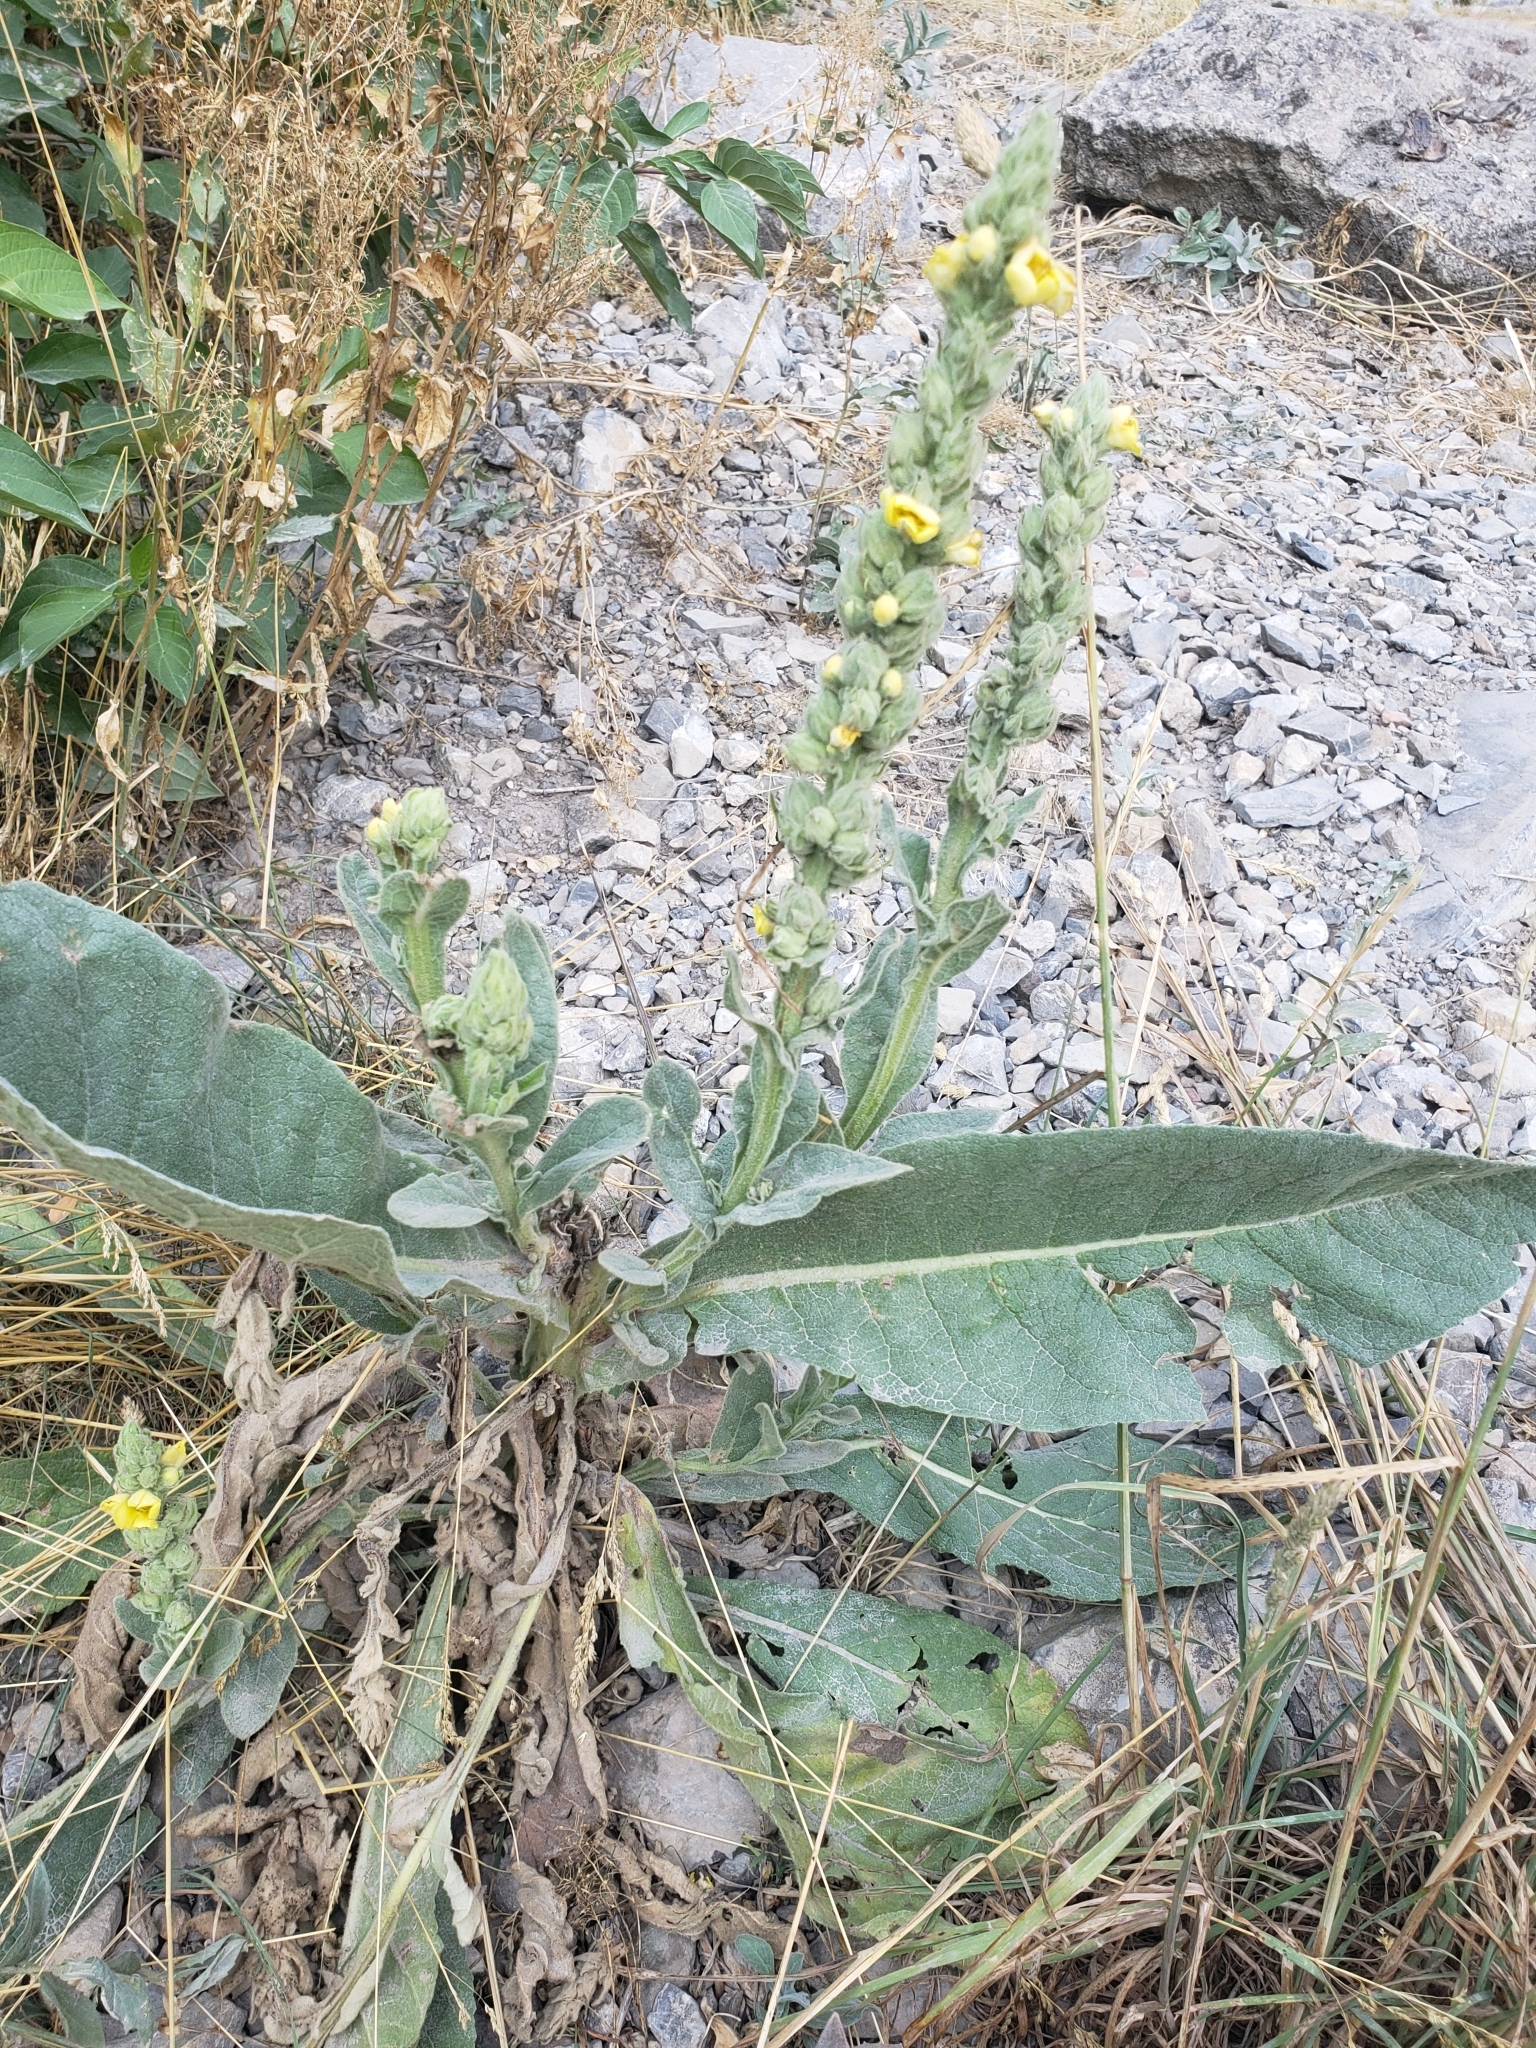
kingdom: Plantae
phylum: Tracheophyta
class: Magnoliopsida
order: Lamiales
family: Scrophulariaceae
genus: Verbascum
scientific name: Verbascum thapsus
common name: Common mullein
